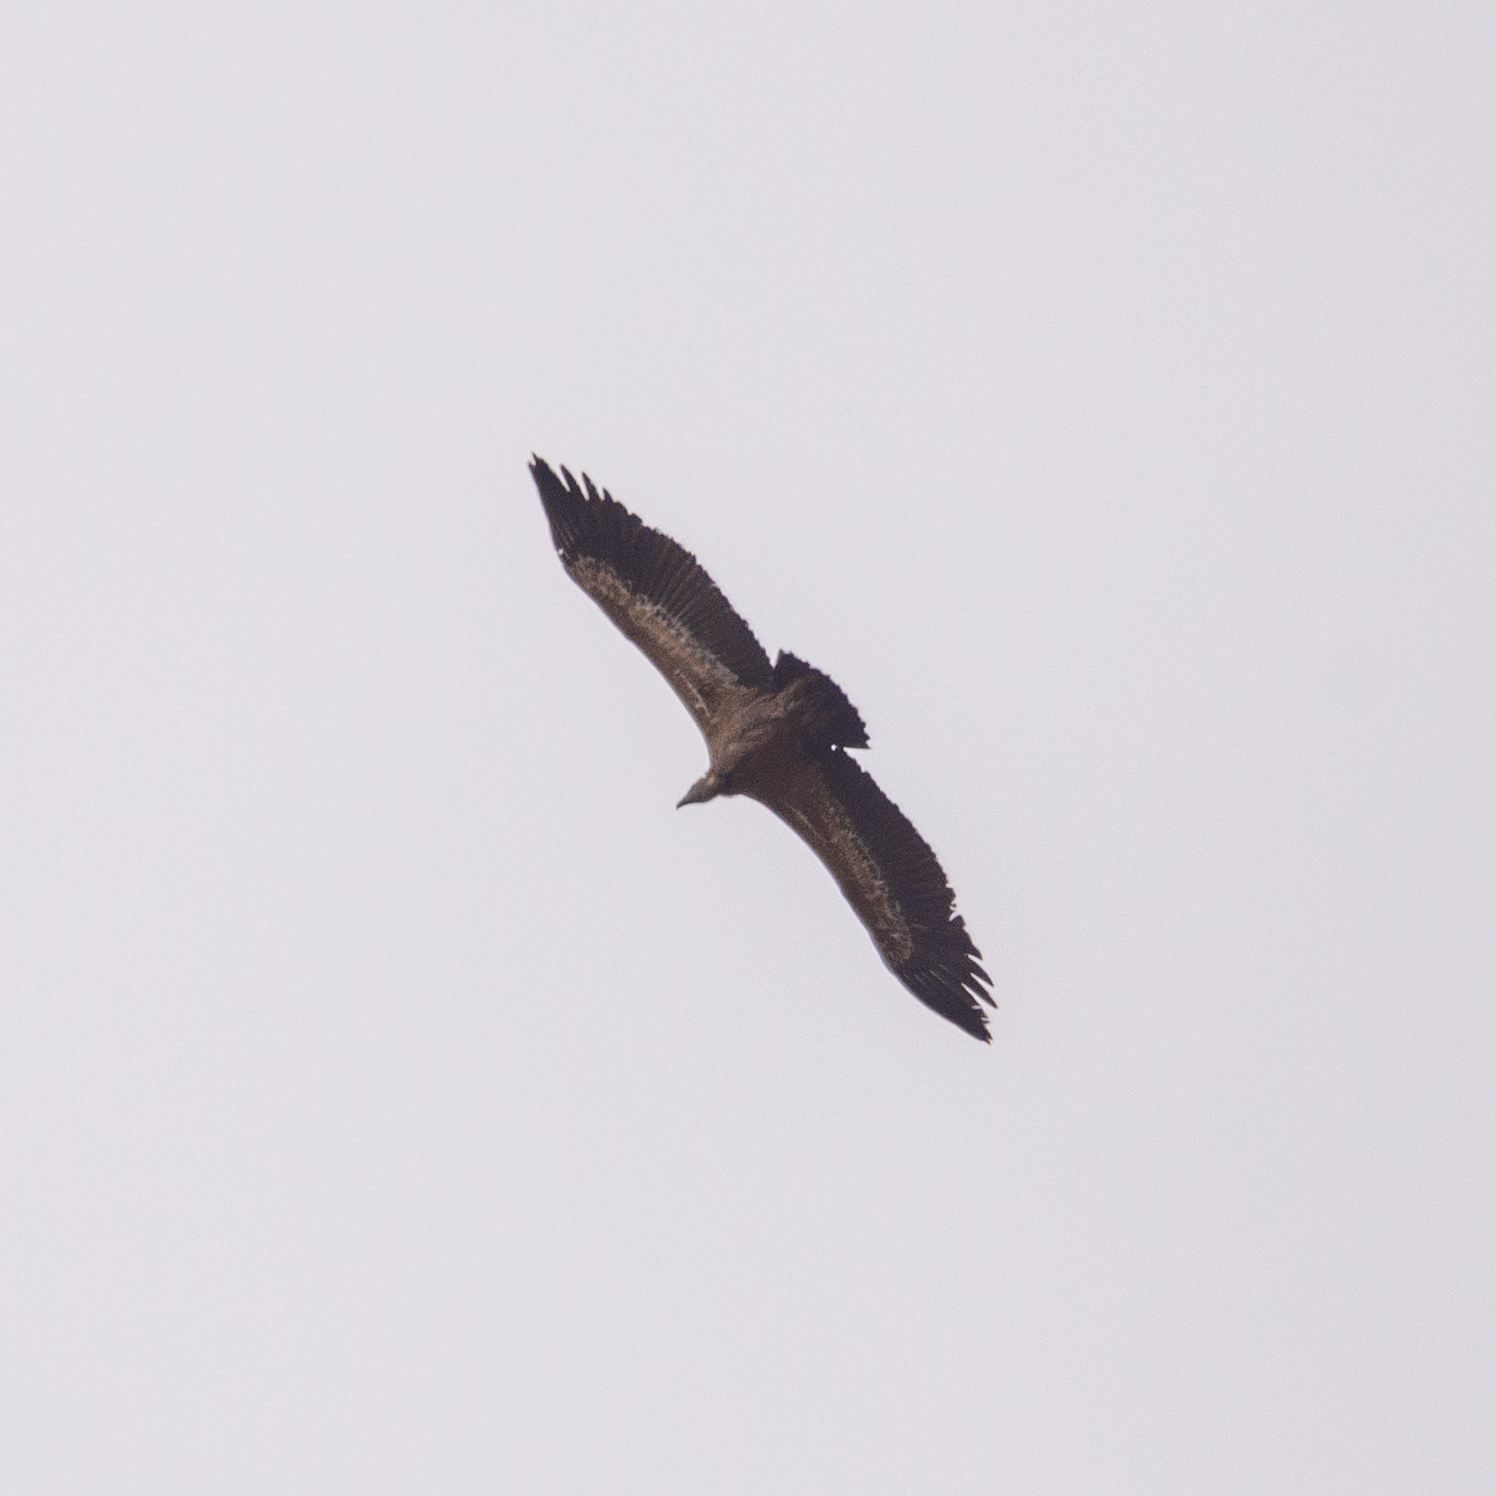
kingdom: Animalia
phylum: Chordata
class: Aves
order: Accipitriformes
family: Accipitridae
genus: Gyps
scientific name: Gyps fulvus
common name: Griffon vulture
